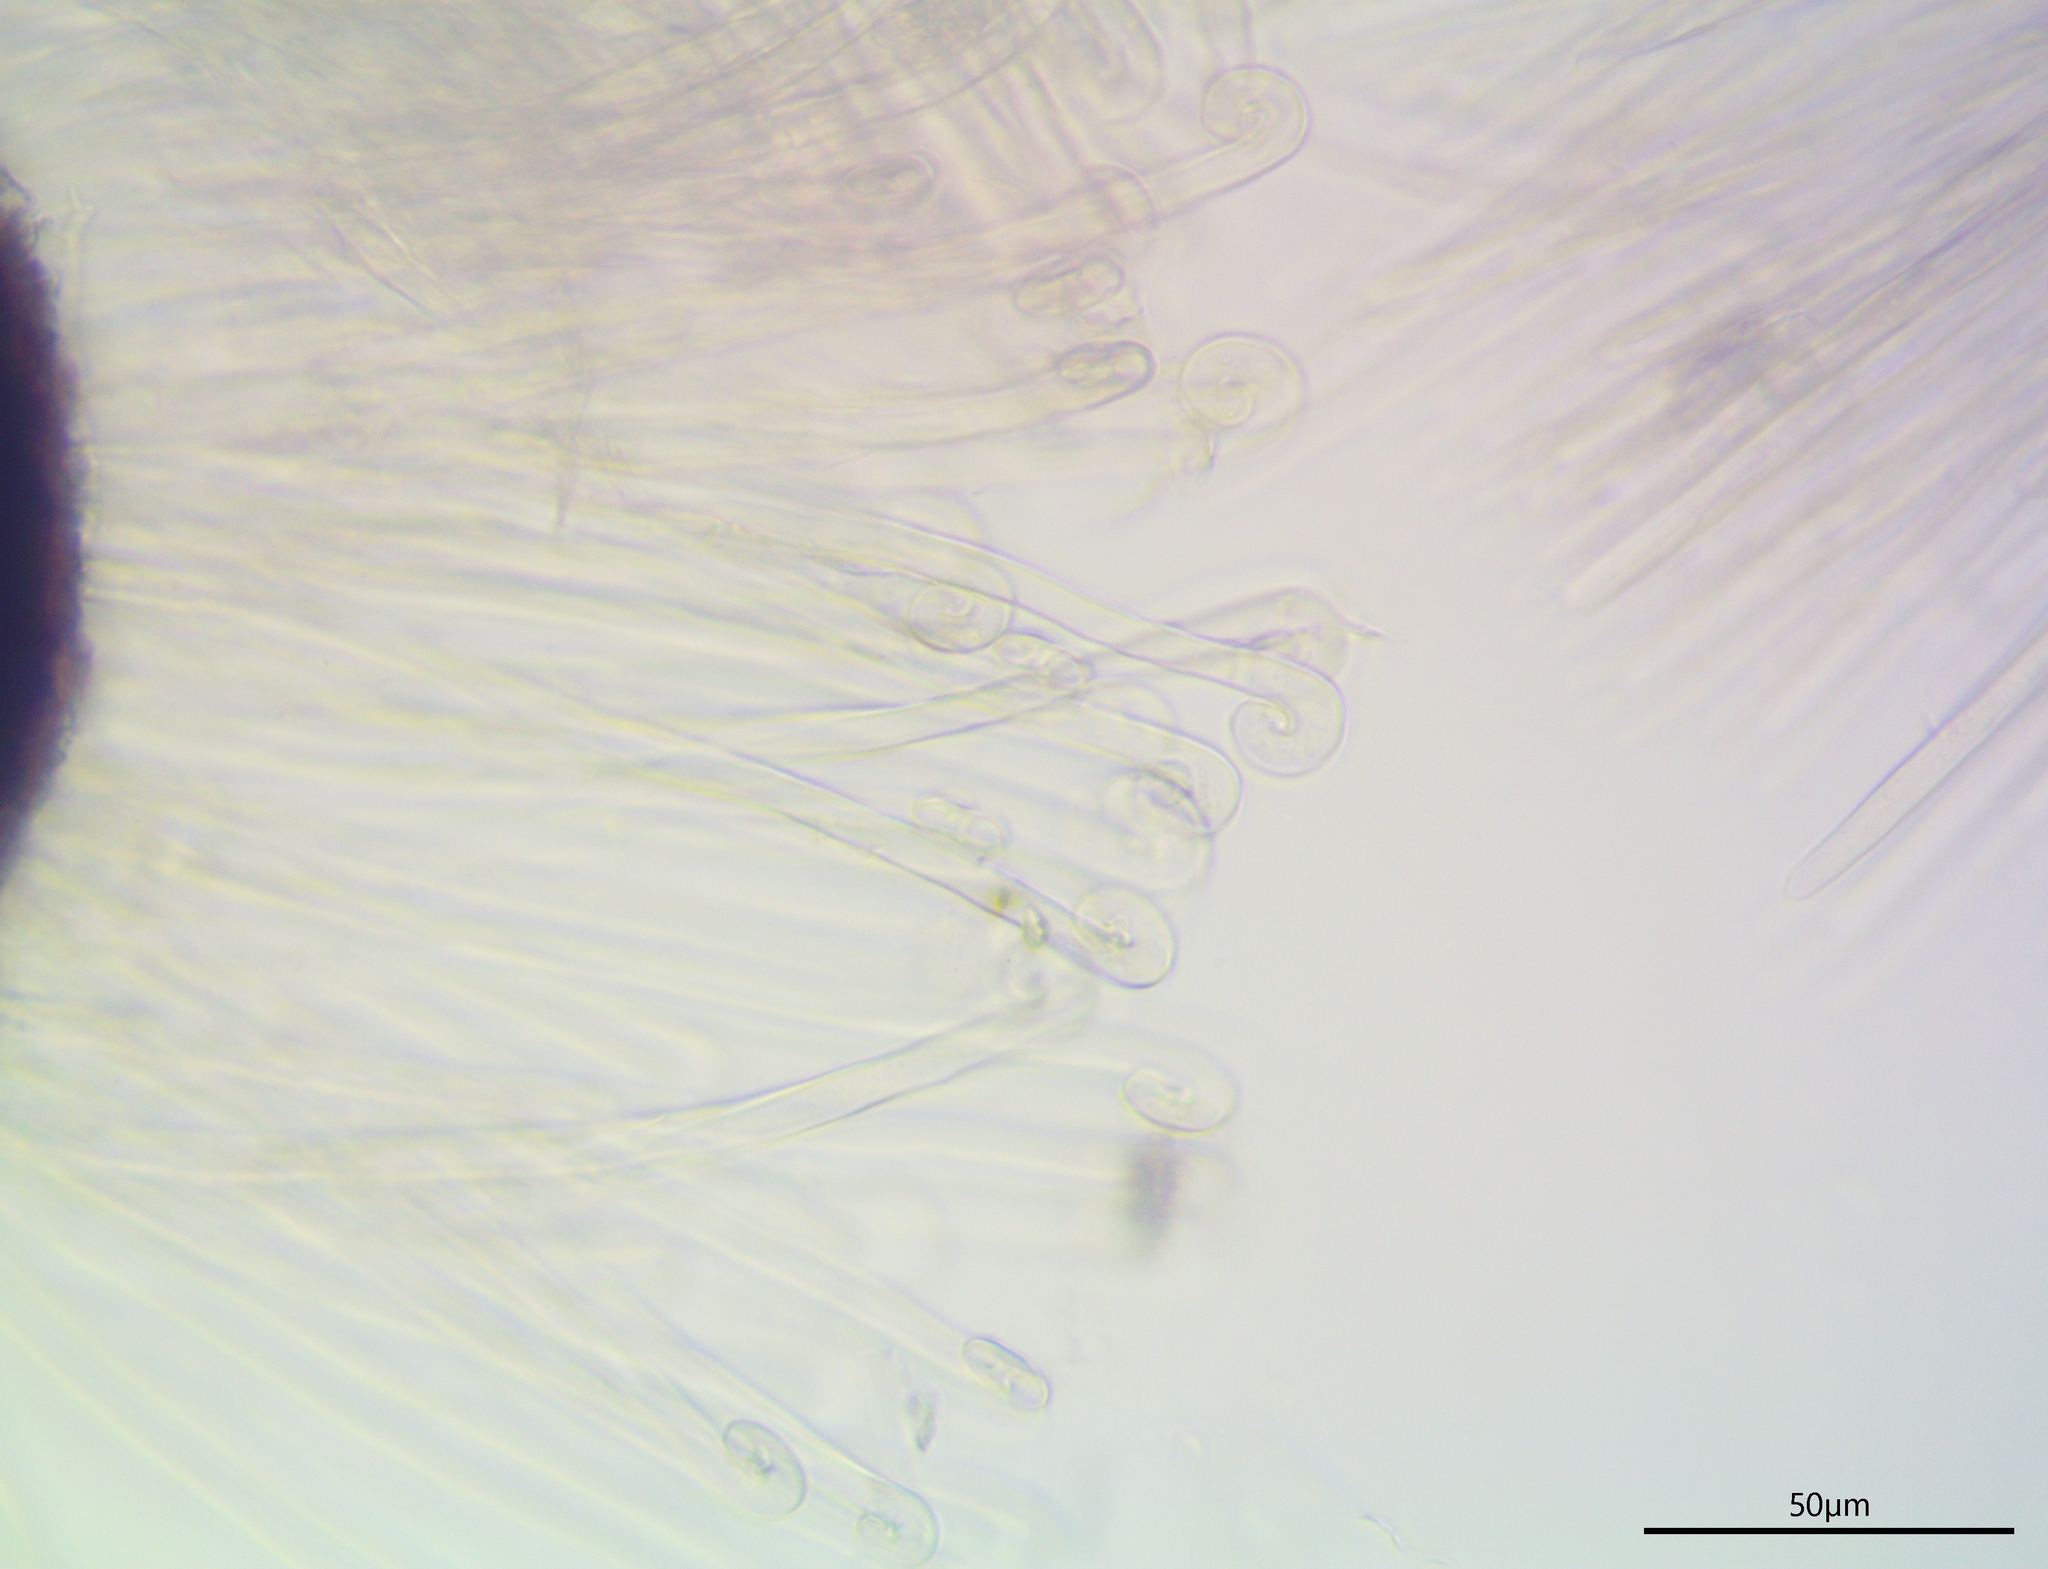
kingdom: Fungi
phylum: Ascomycota
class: Leotiomycetes
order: Helotiales
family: Erysiphaceae
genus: Erysiphe
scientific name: Erysiphe capreae
